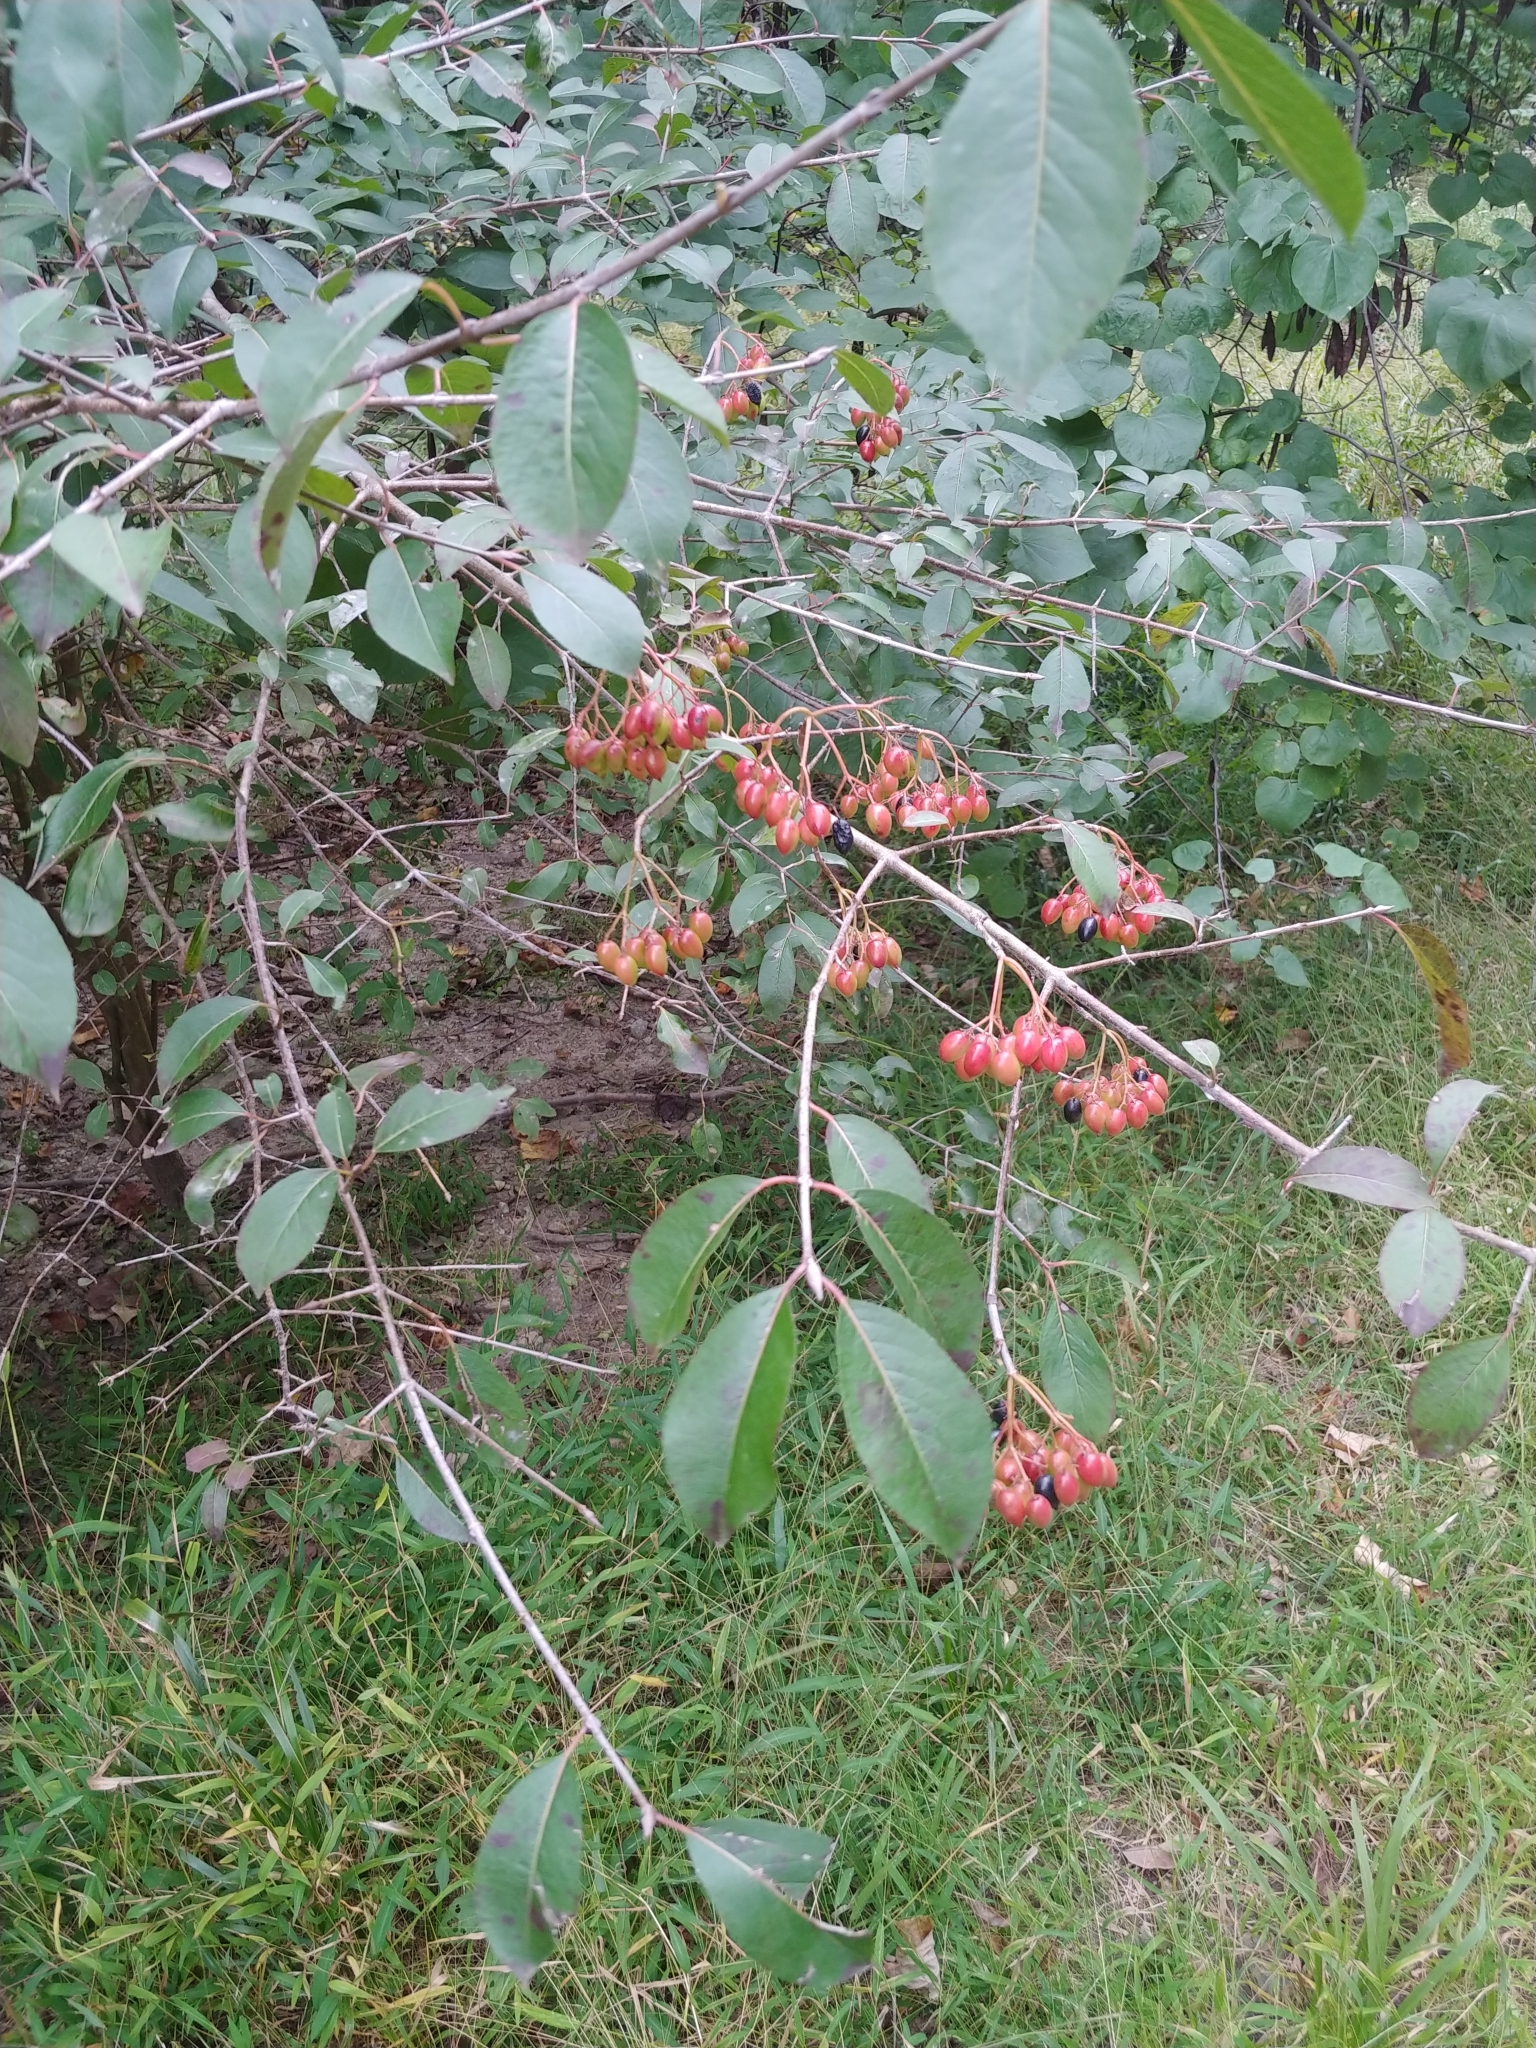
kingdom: Plantae
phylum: Tracheophyta
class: Magnoliopsida
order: Dipsacales
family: Viburnaceae
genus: Viburnum
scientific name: Viburnum prunifolium
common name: Black haw
